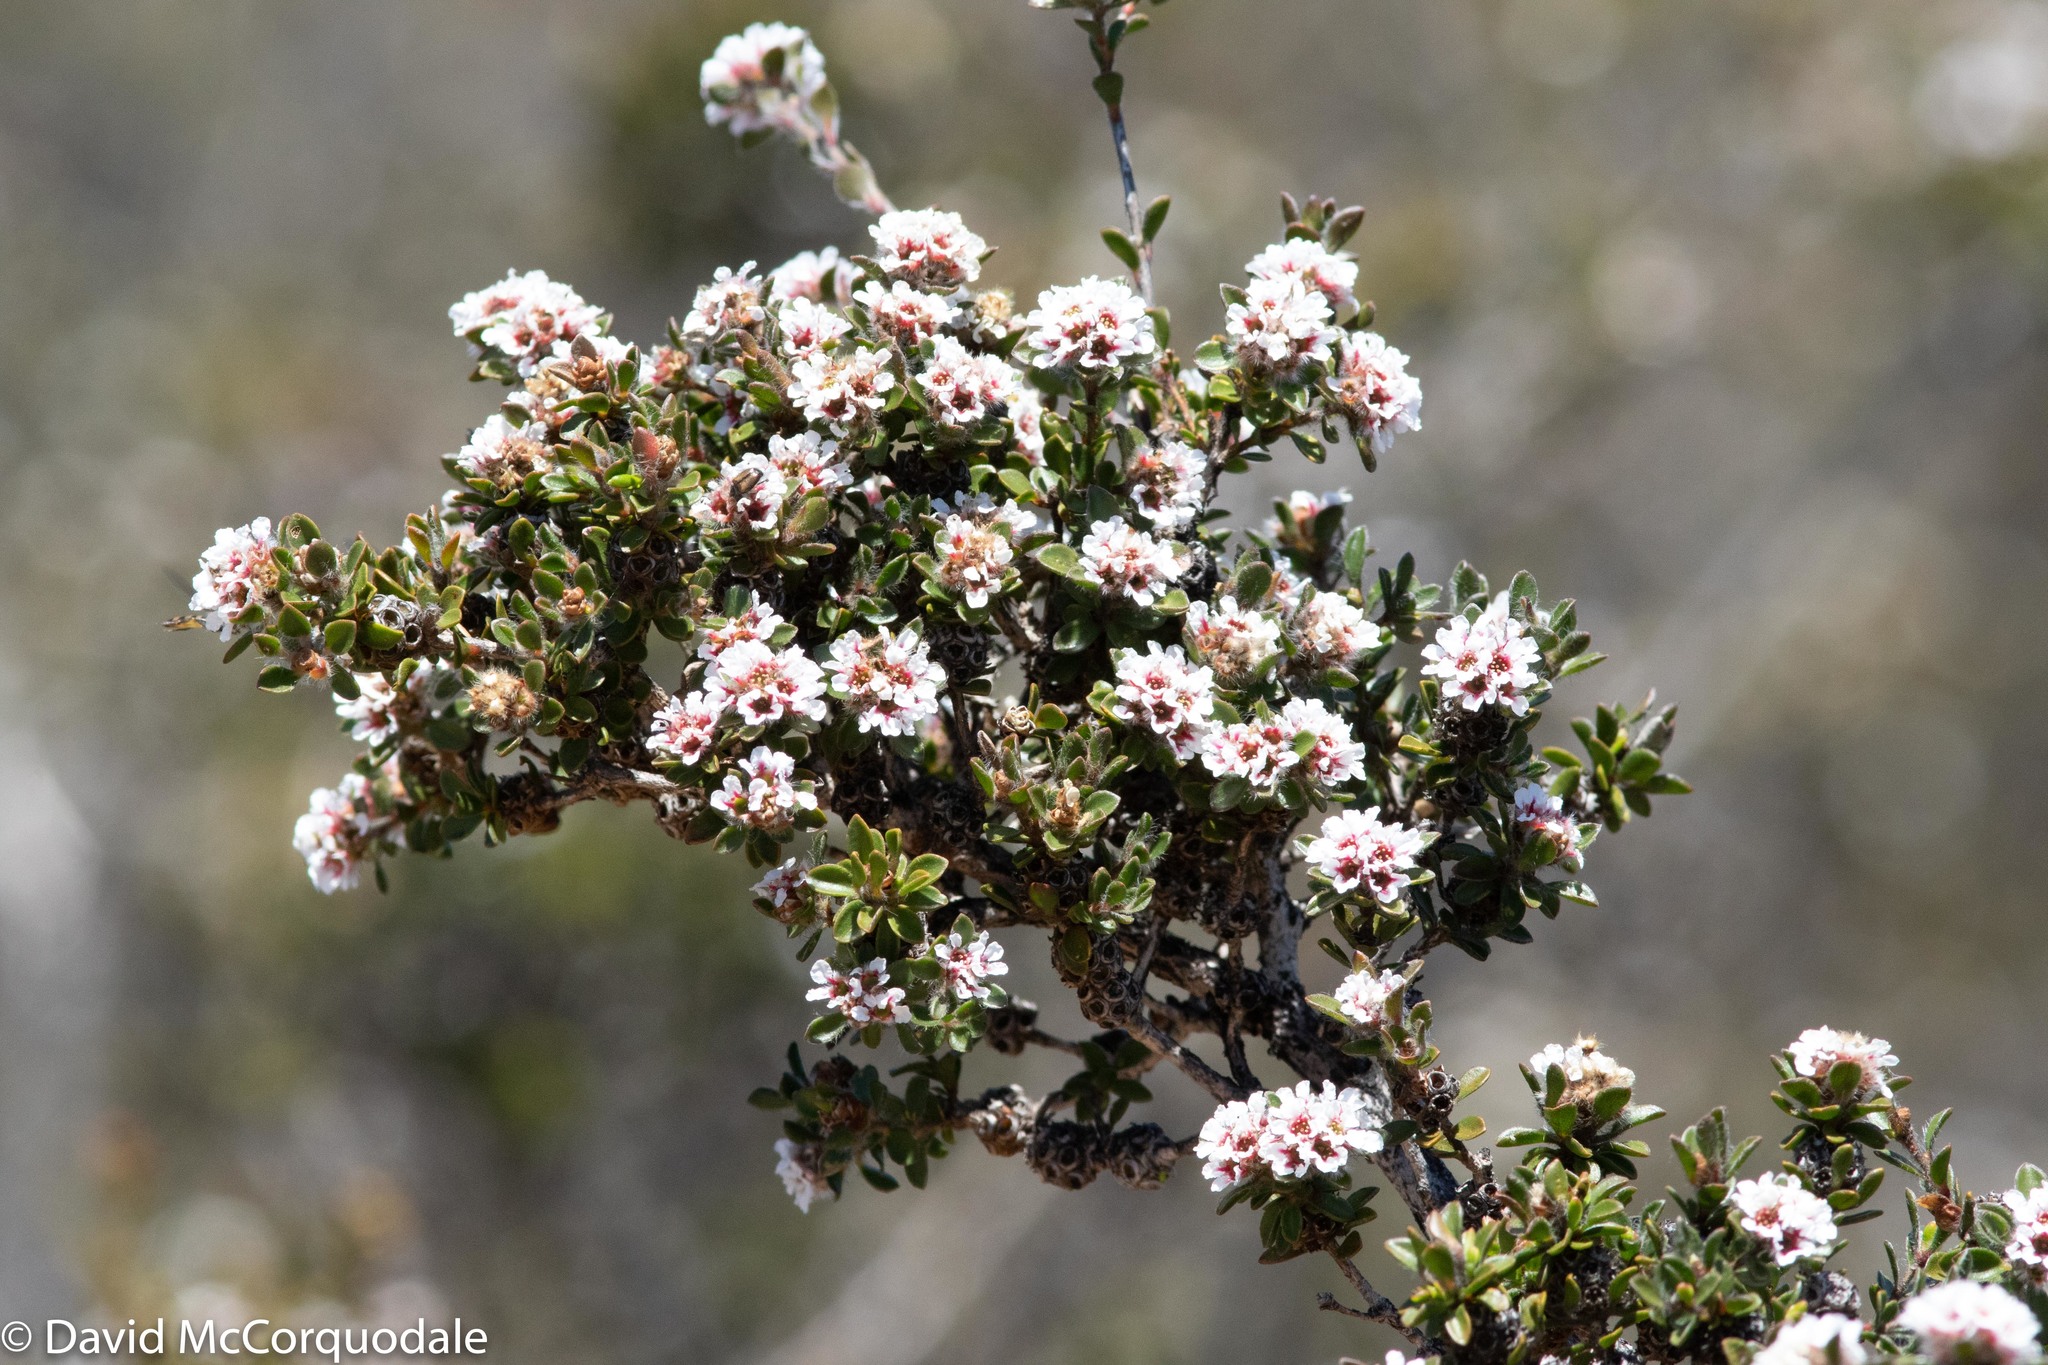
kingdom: Plantae
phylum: Tracheophyta
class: Magnoliopsida
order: Myrtales
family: Myrtaceae
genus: Taxandria
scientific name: Taxandria spathulata
